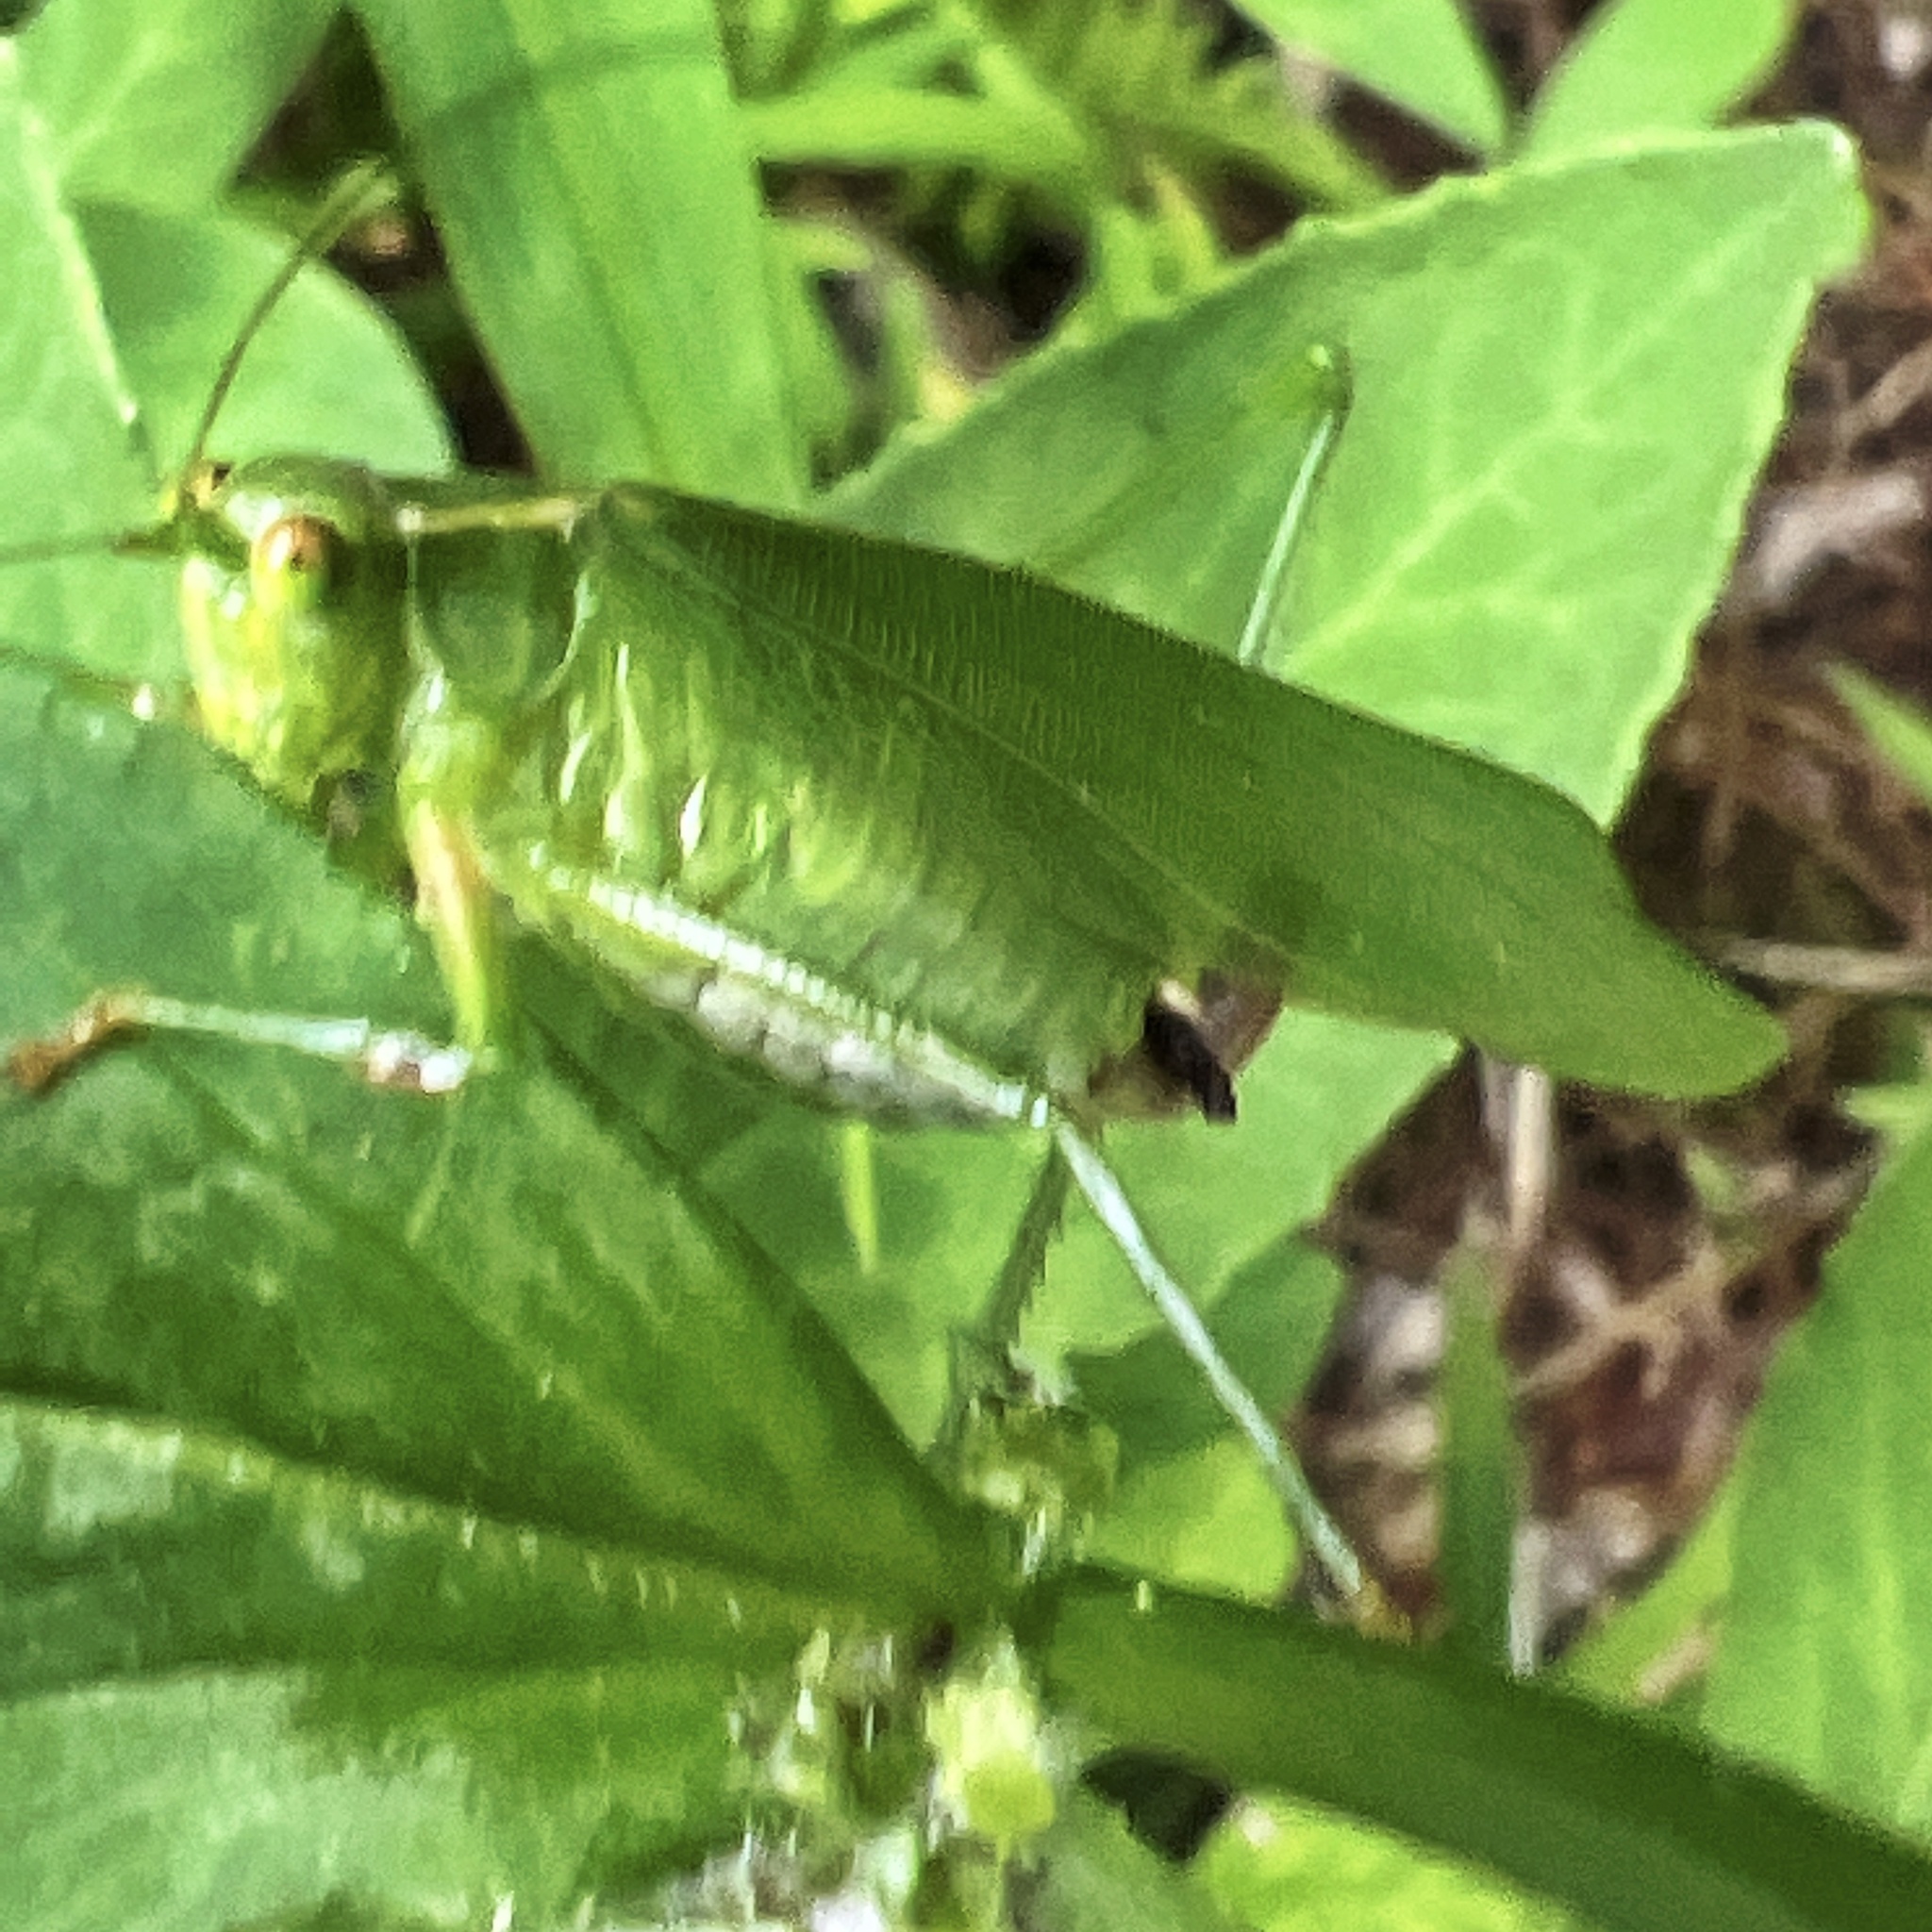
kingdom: Animalia
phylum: Arthropoda
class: Insecta
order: Orthoptera
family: Tettigoniidae
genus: Scudderia
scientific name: Scudderia furcata
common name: Fork-tailed bush katydid
